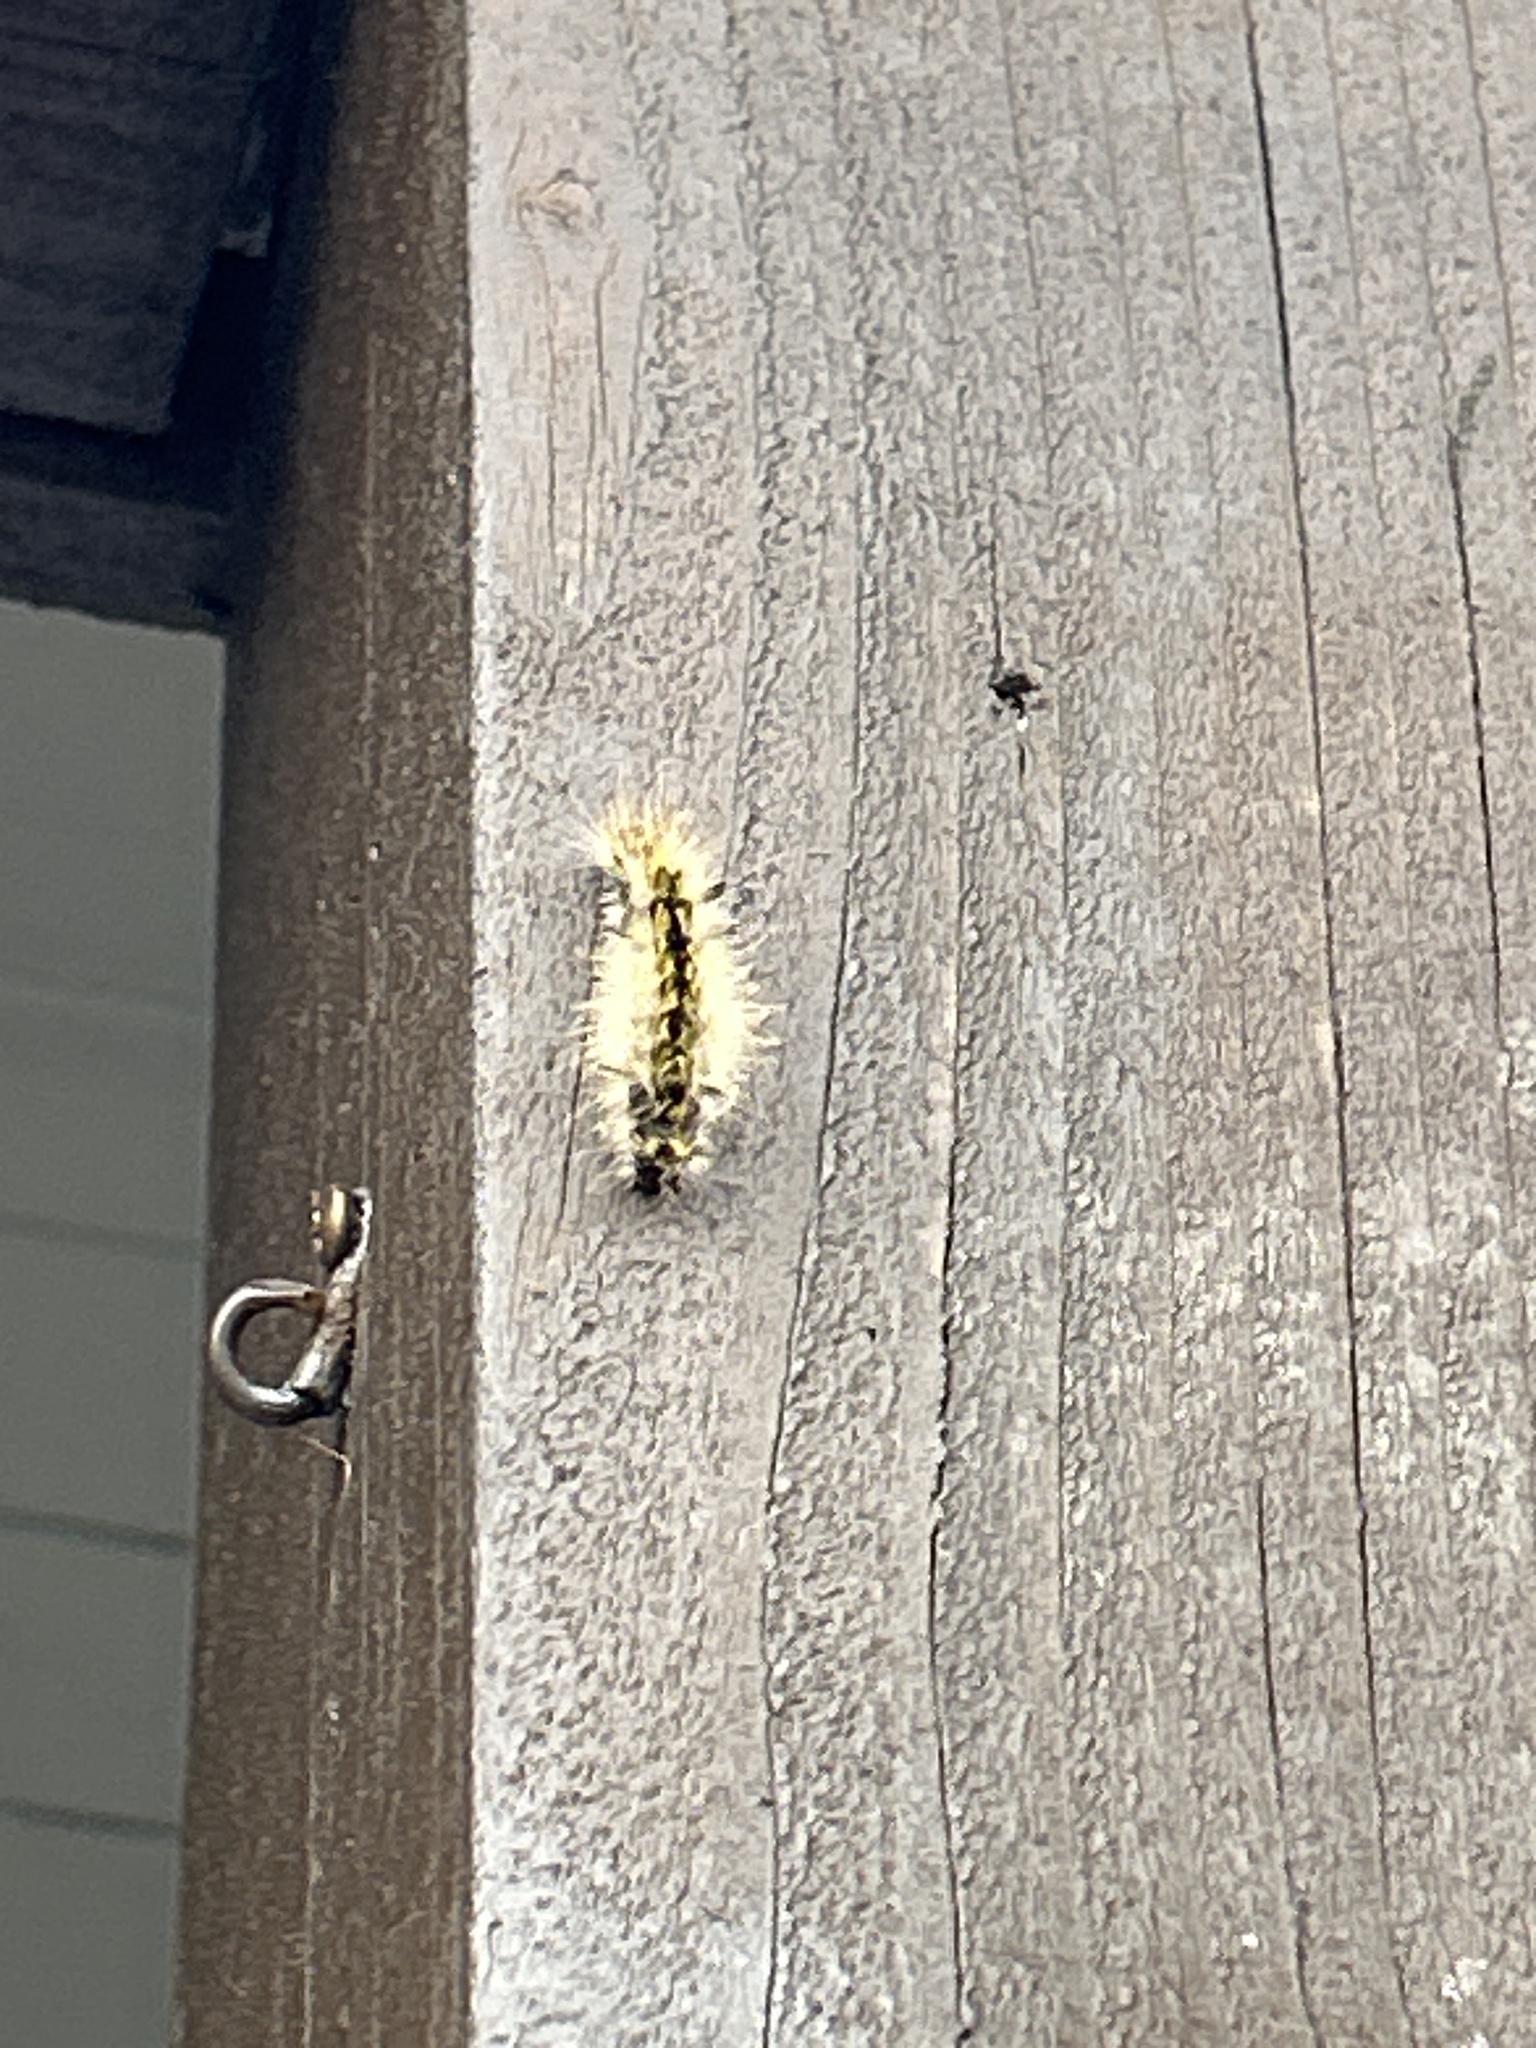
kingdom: Animalia
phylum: Arthropoda
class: Insecta
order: Lepidoptera
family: Erebidae
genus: Lophocampa
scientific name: Lophocampa argentata
